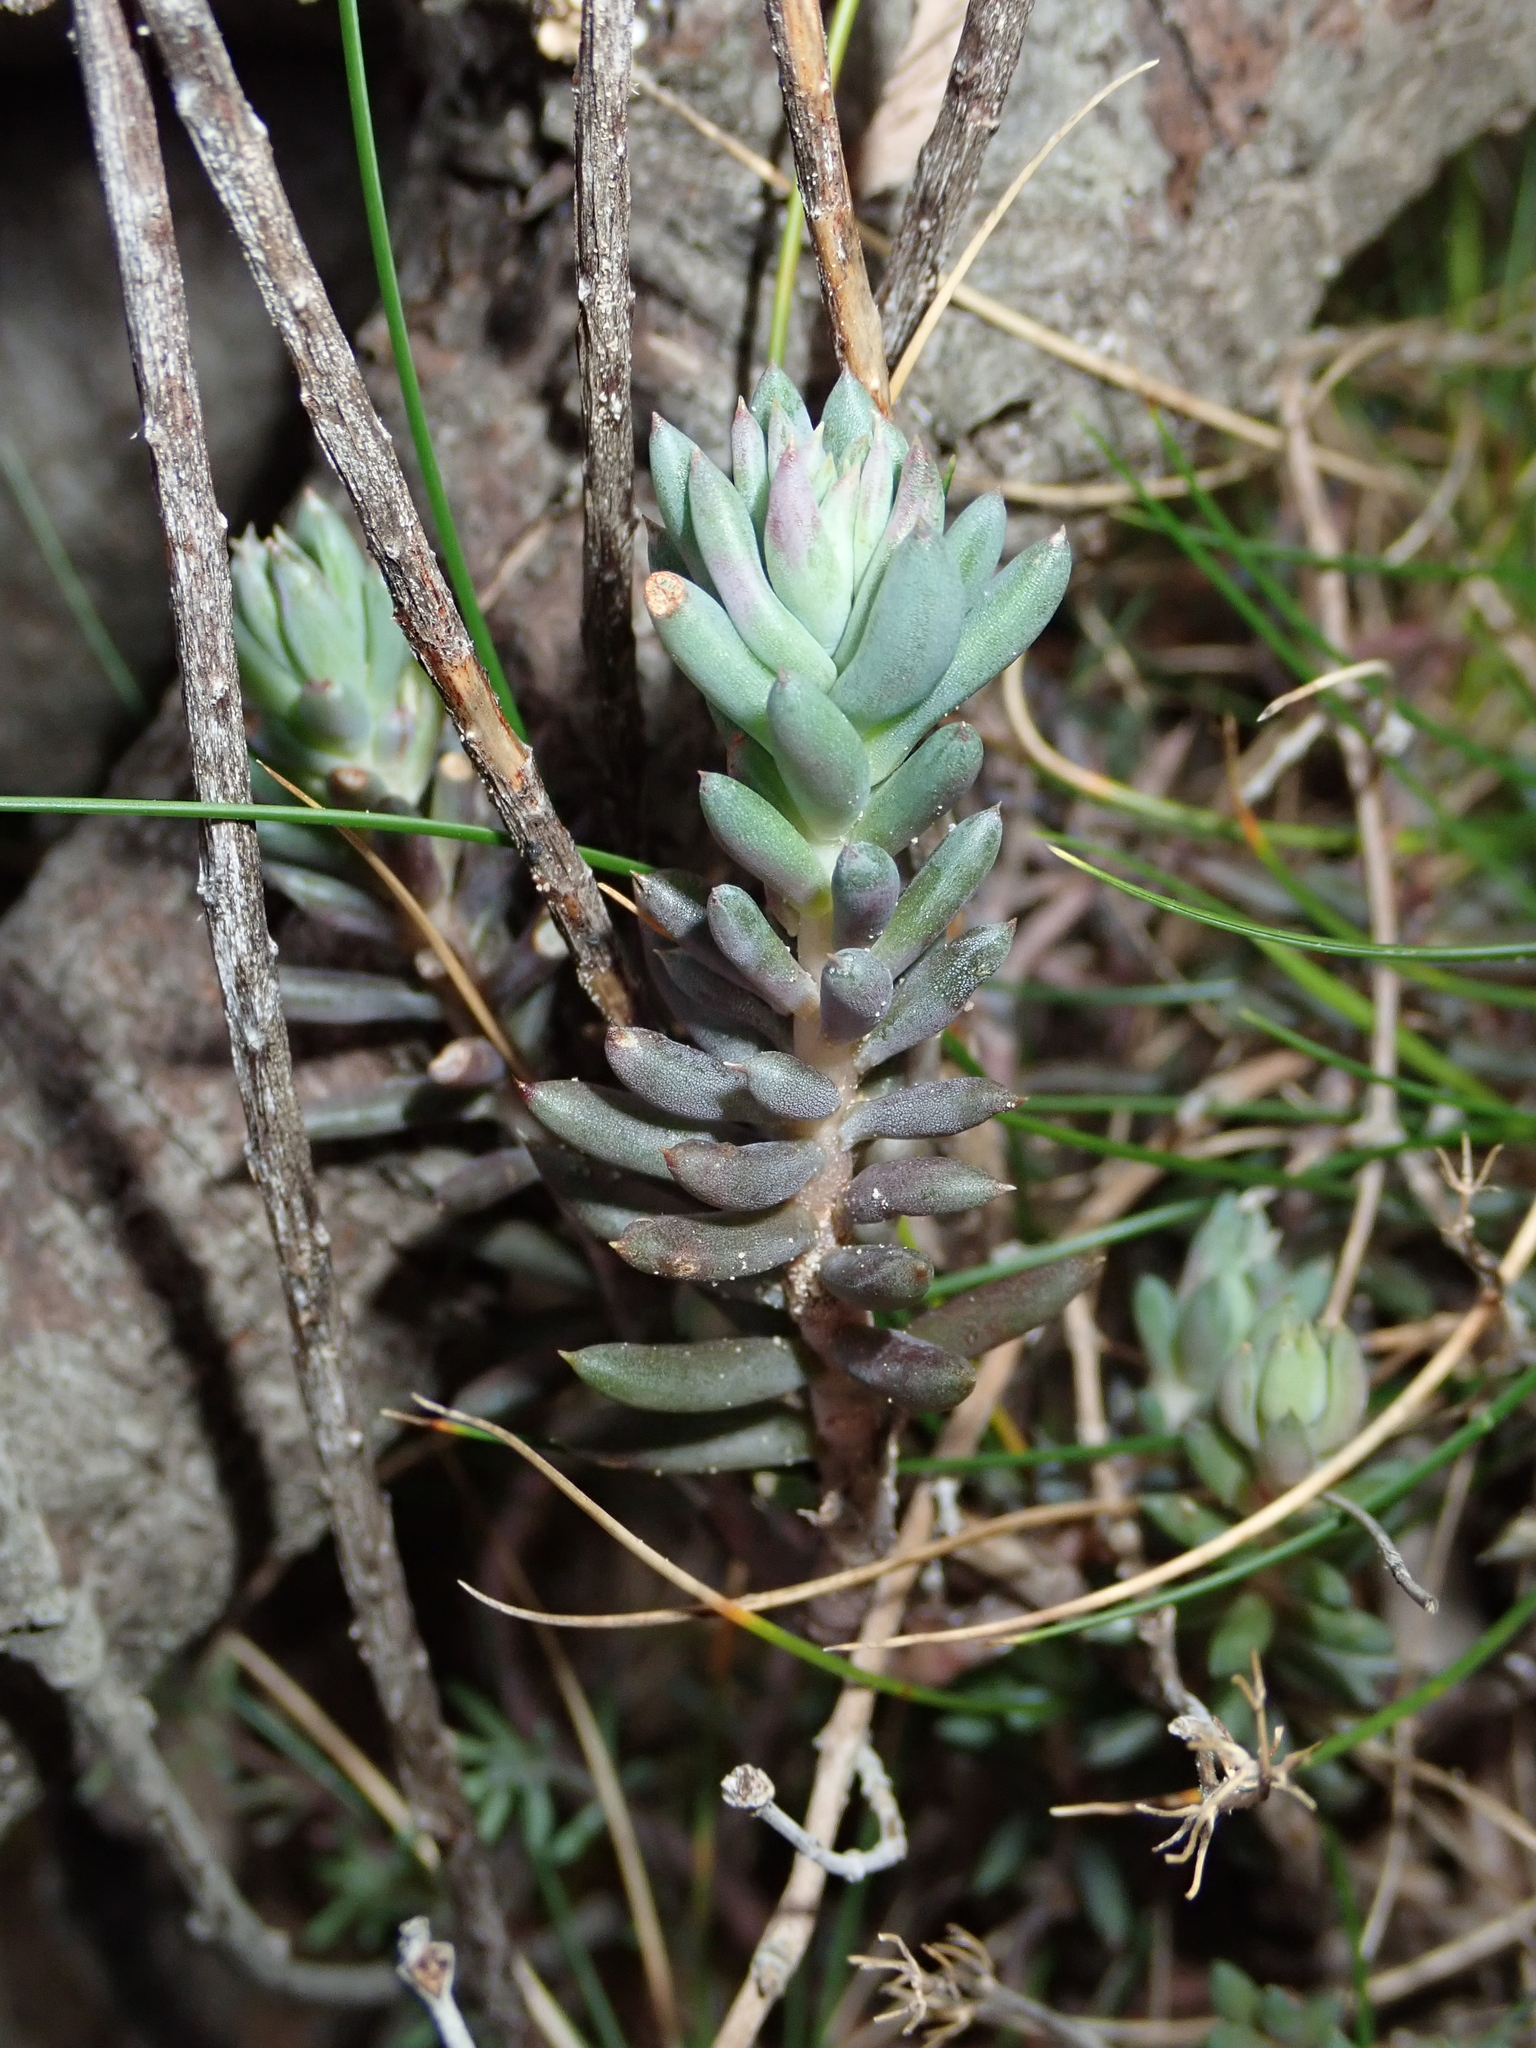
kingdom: Plantae
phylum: Tracheophyta
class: Magnoliopsida
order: Saxifragales
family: Crassulaceae
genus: Petrosedum
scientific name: Petrosedum sediforme
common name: Pale stonecrop
